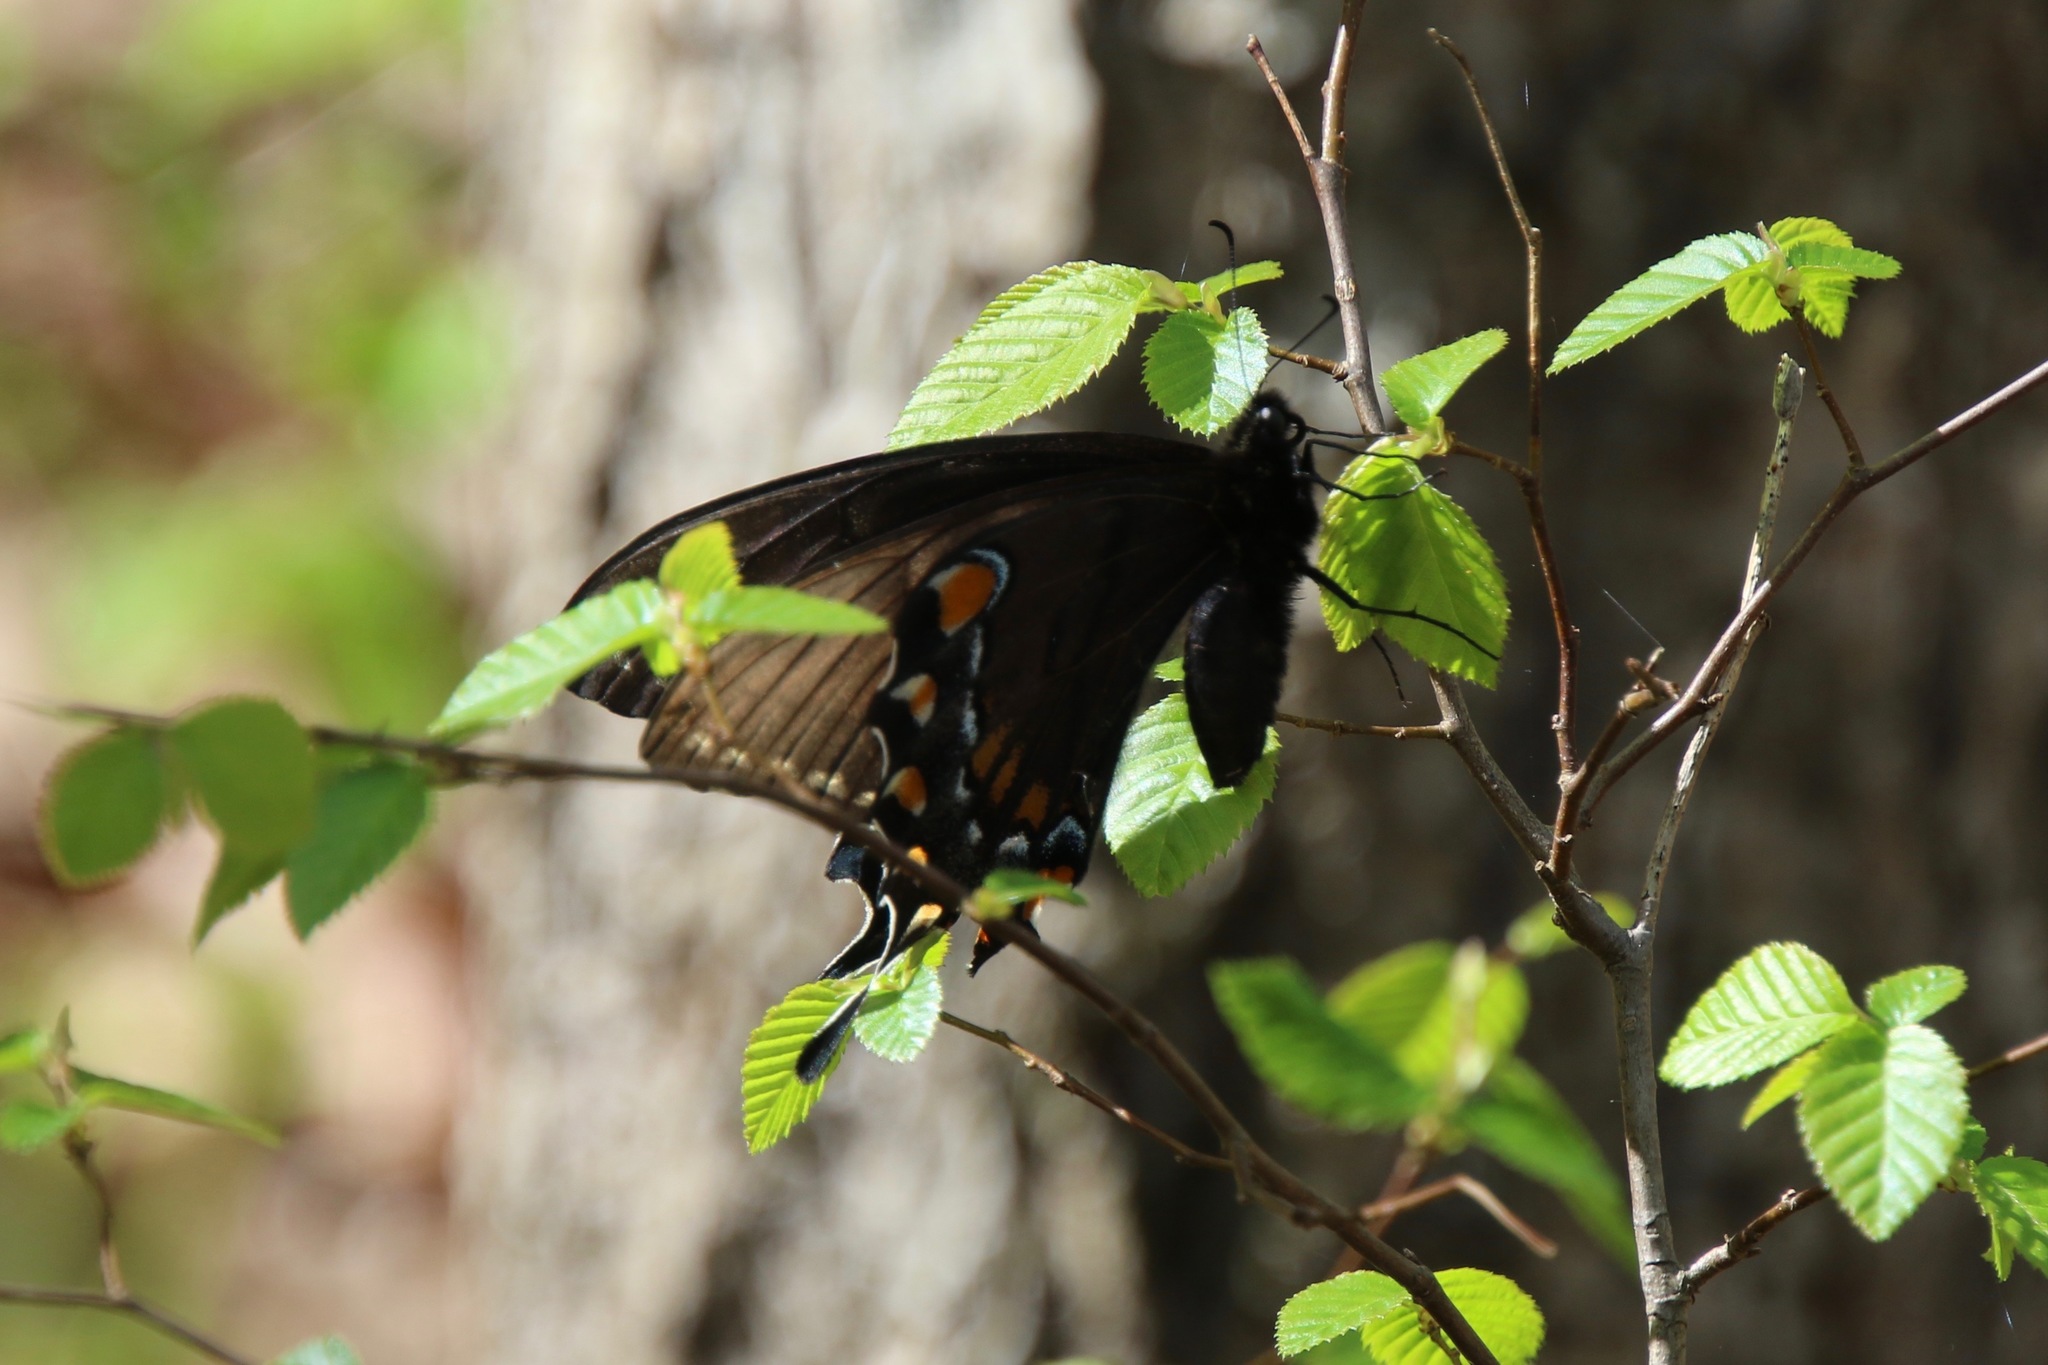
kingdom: Animalia
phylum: Arthropoda
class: Insecta
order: Lepidoptera
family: Papilionidae
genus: Papilio
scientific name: Papilio glaucus
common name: Tiger swallowtail
